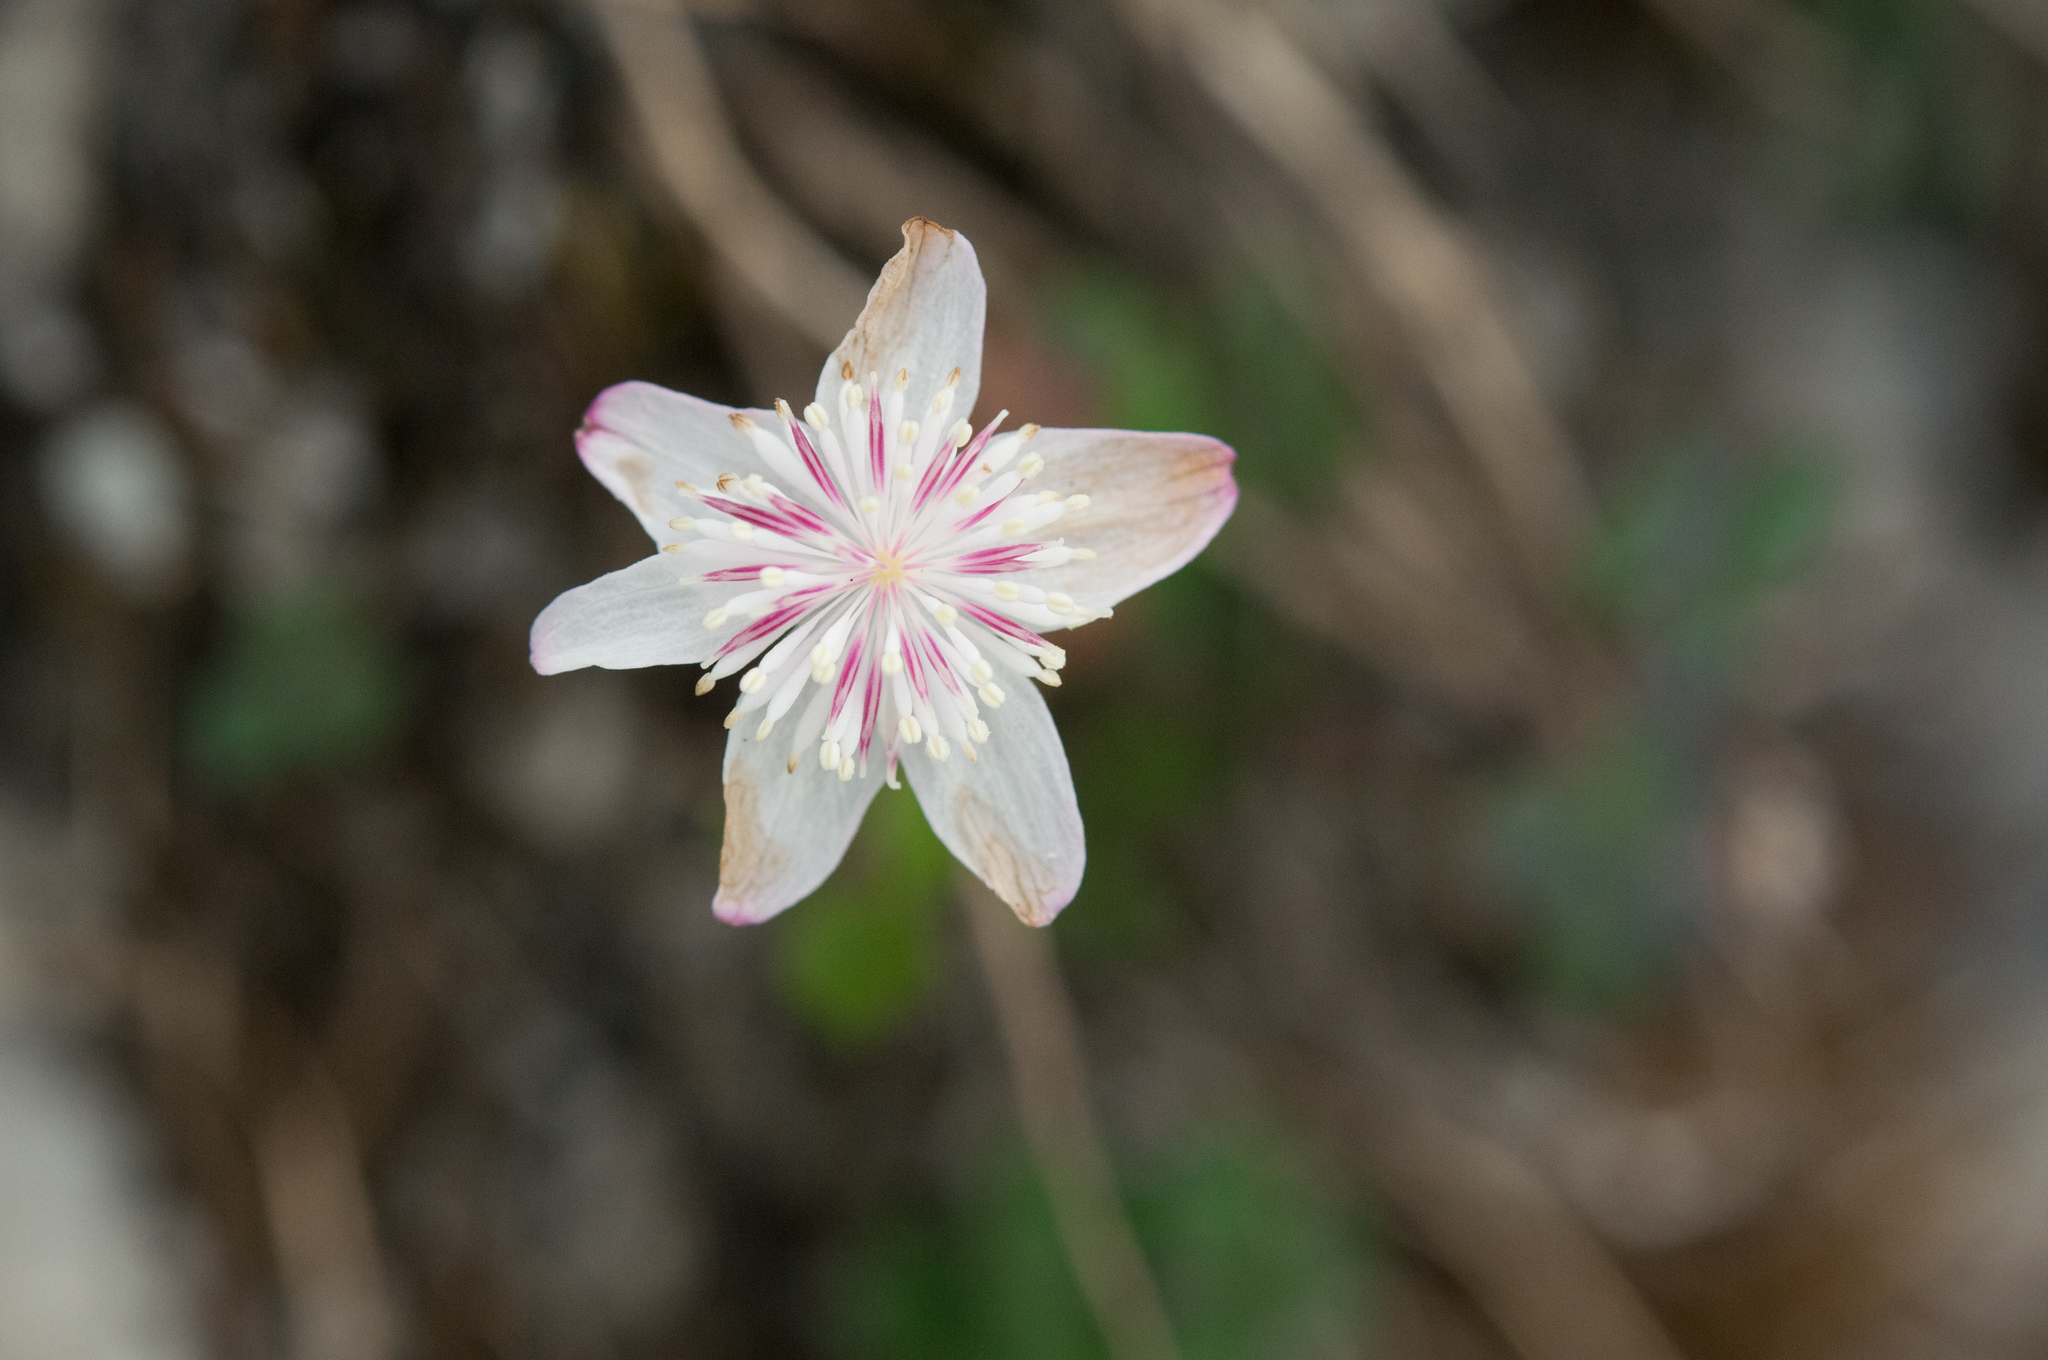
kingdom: Plantae
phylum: Tracheophyta
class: Magnoliopsida
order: Ranunculales
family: Ranunculaceae
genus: Thalictrum
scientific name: Thalictrum urbaini
